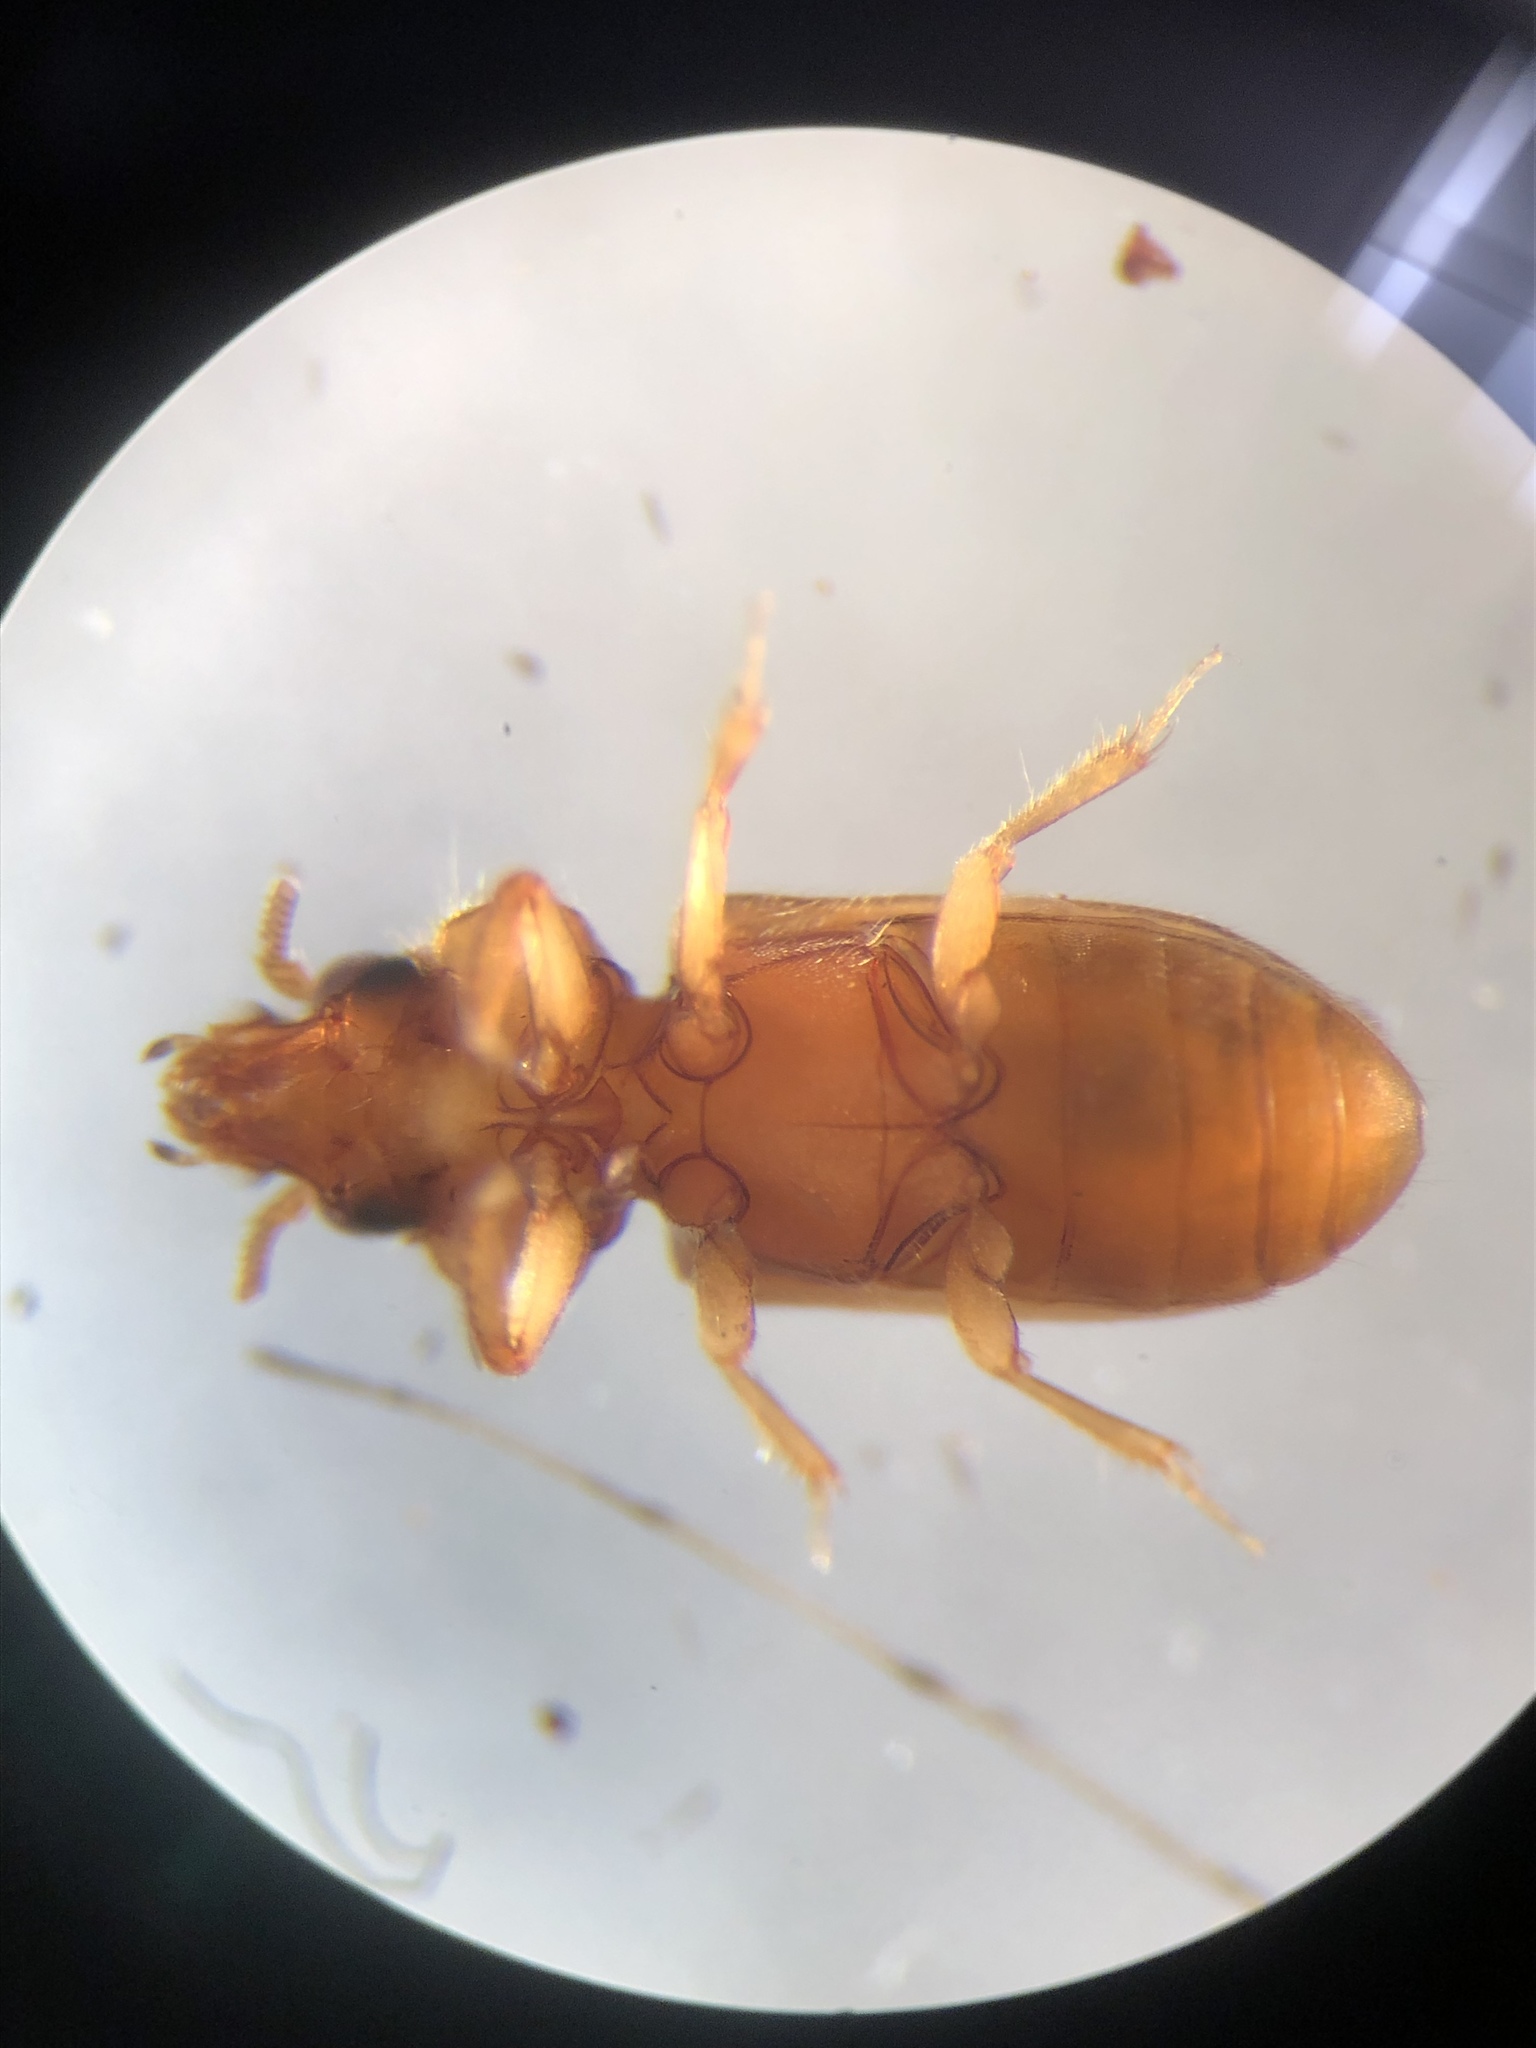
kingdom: Animalia
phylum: Arthropoda
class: Insecta
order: Coleoptera
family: Heteroceridae
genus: Tropicus
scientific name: Tropicus pusillus
